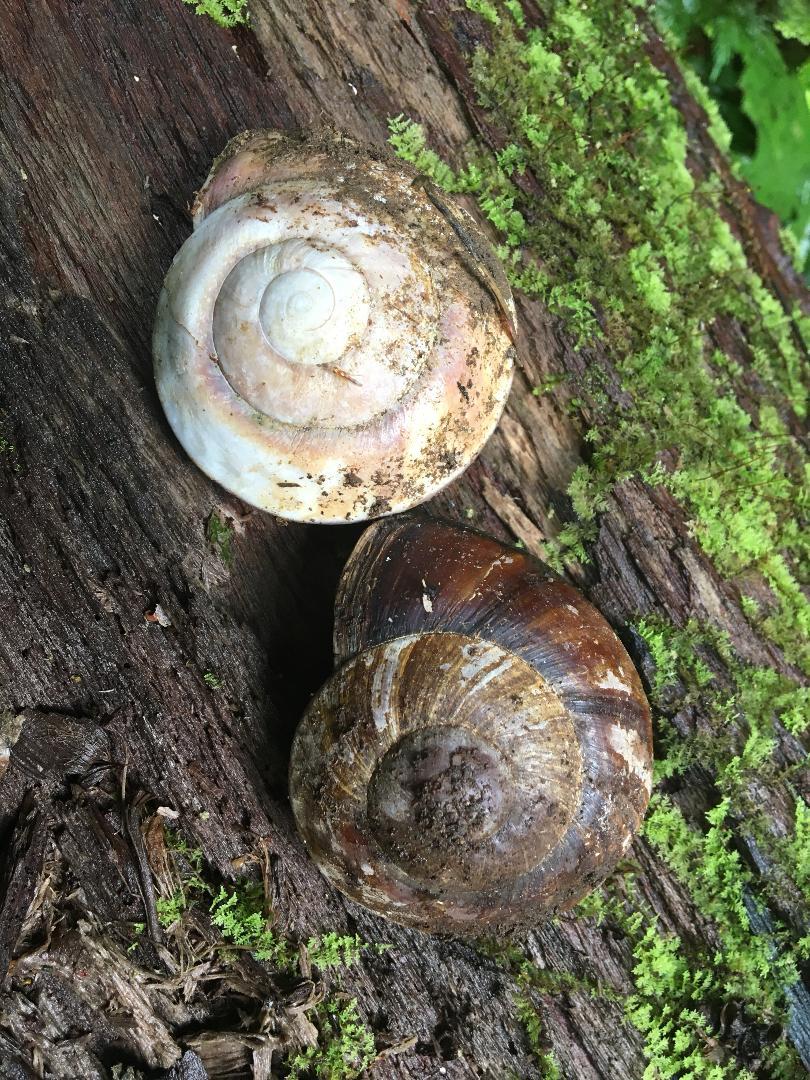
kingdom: Animalia
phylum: Mollusca
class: Gastropoda
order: Stylommatophora
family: Chronidae
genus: Exrhysota
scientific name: Exrhysota brookei
